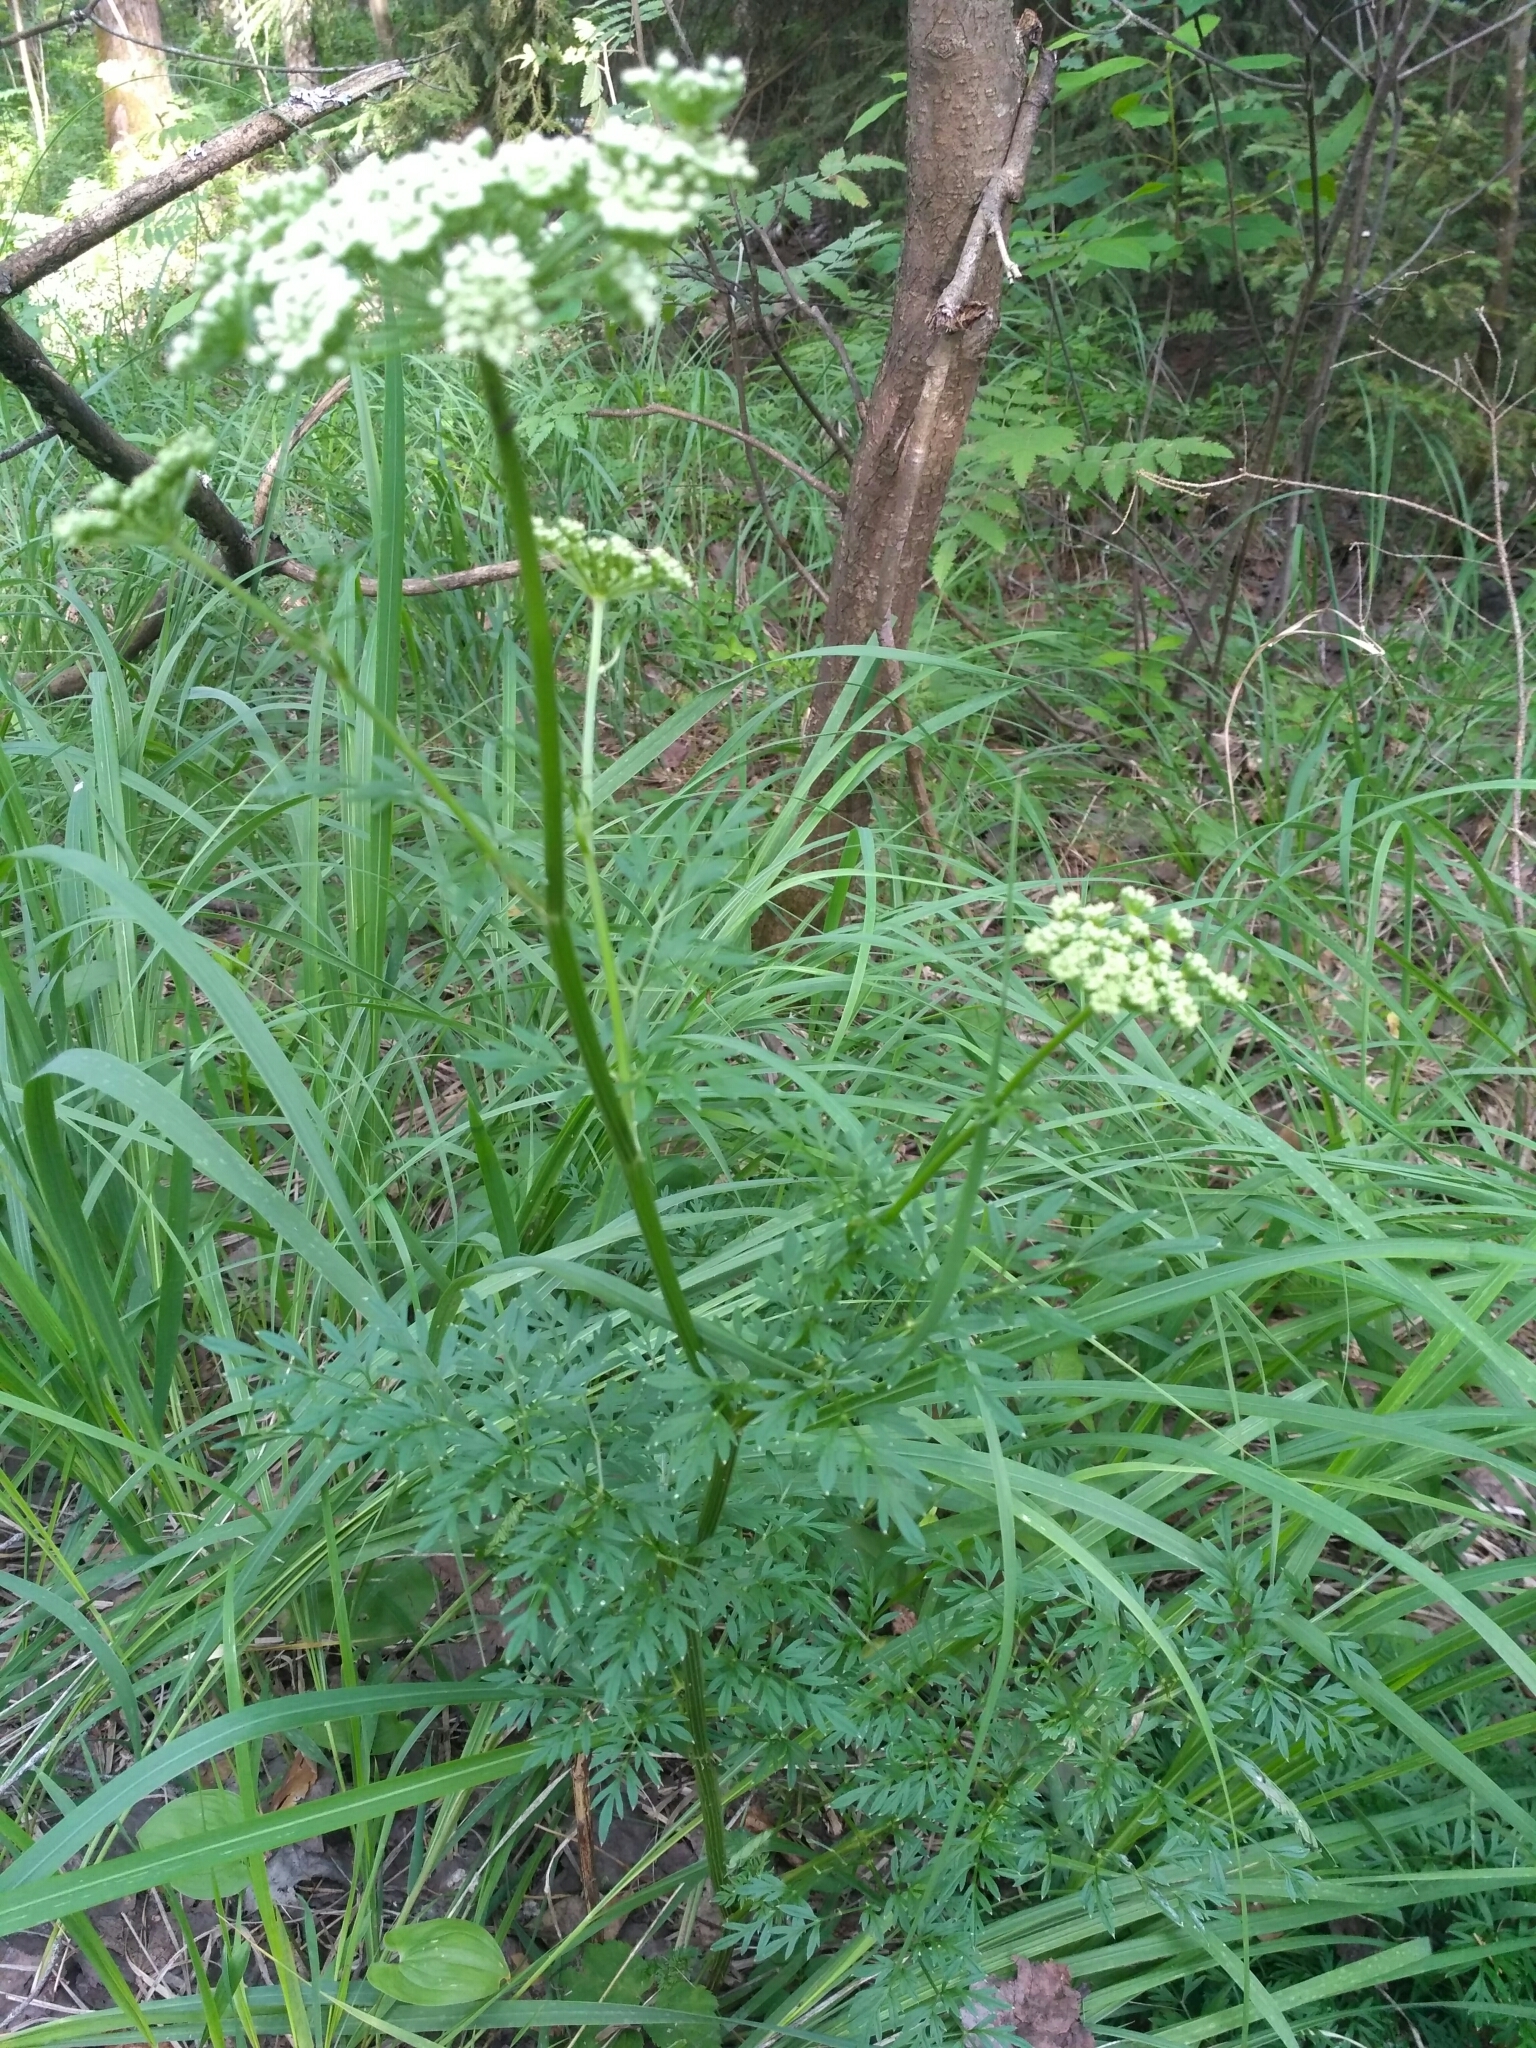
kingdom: Plantae
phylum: Tracheophyta
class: Magnoliopsida
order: Apiales
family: Apiaceae
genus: Selinum
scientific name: Selinum carvifolia
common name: Cambridge milk-parsley
